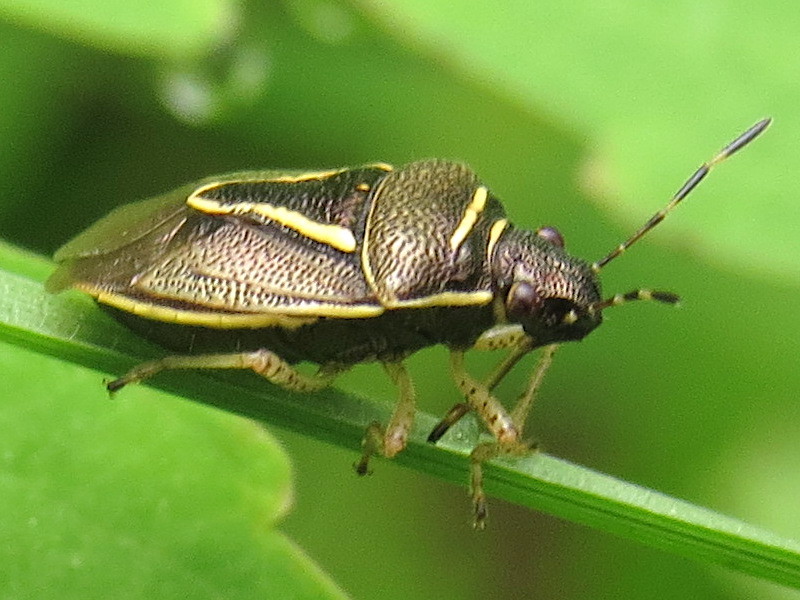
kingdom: Animalia
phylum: Arthropoda
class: Insecta
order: Hemiptera
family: Pentatomidae
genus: Mormidea
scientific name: Mormidea lugens
